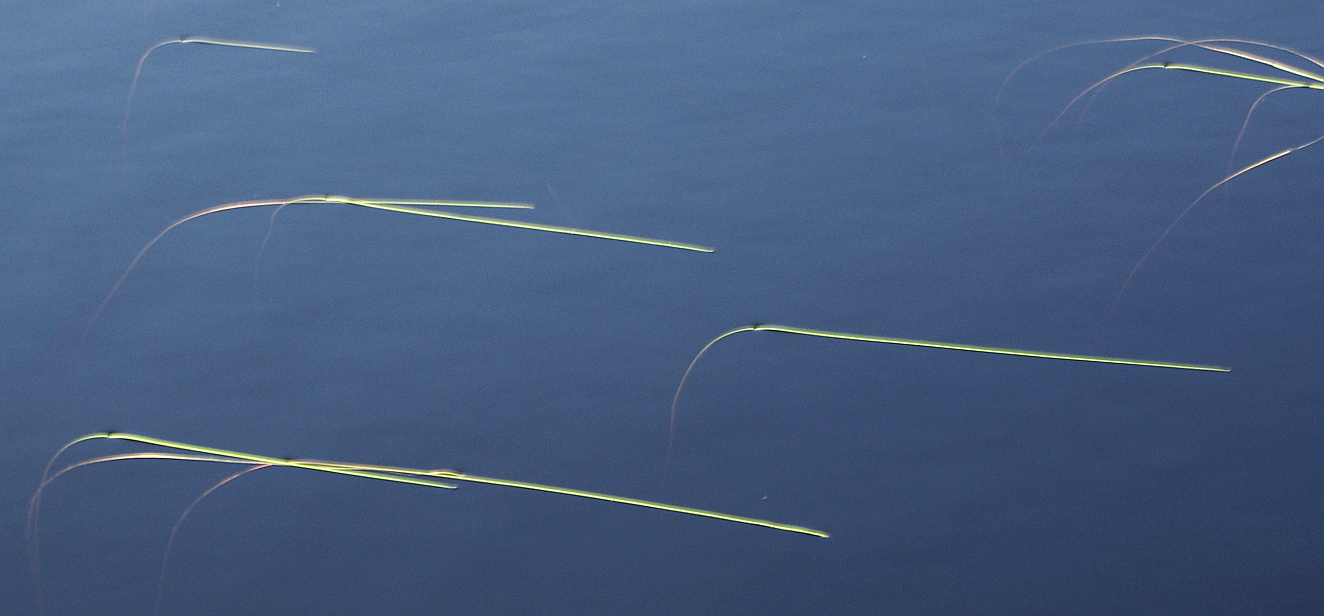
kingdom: Plantae
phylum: Tracheophyta
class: Liliopsida
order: Poales
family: Typhaceae
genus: Sparganium
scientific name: Sparganium
